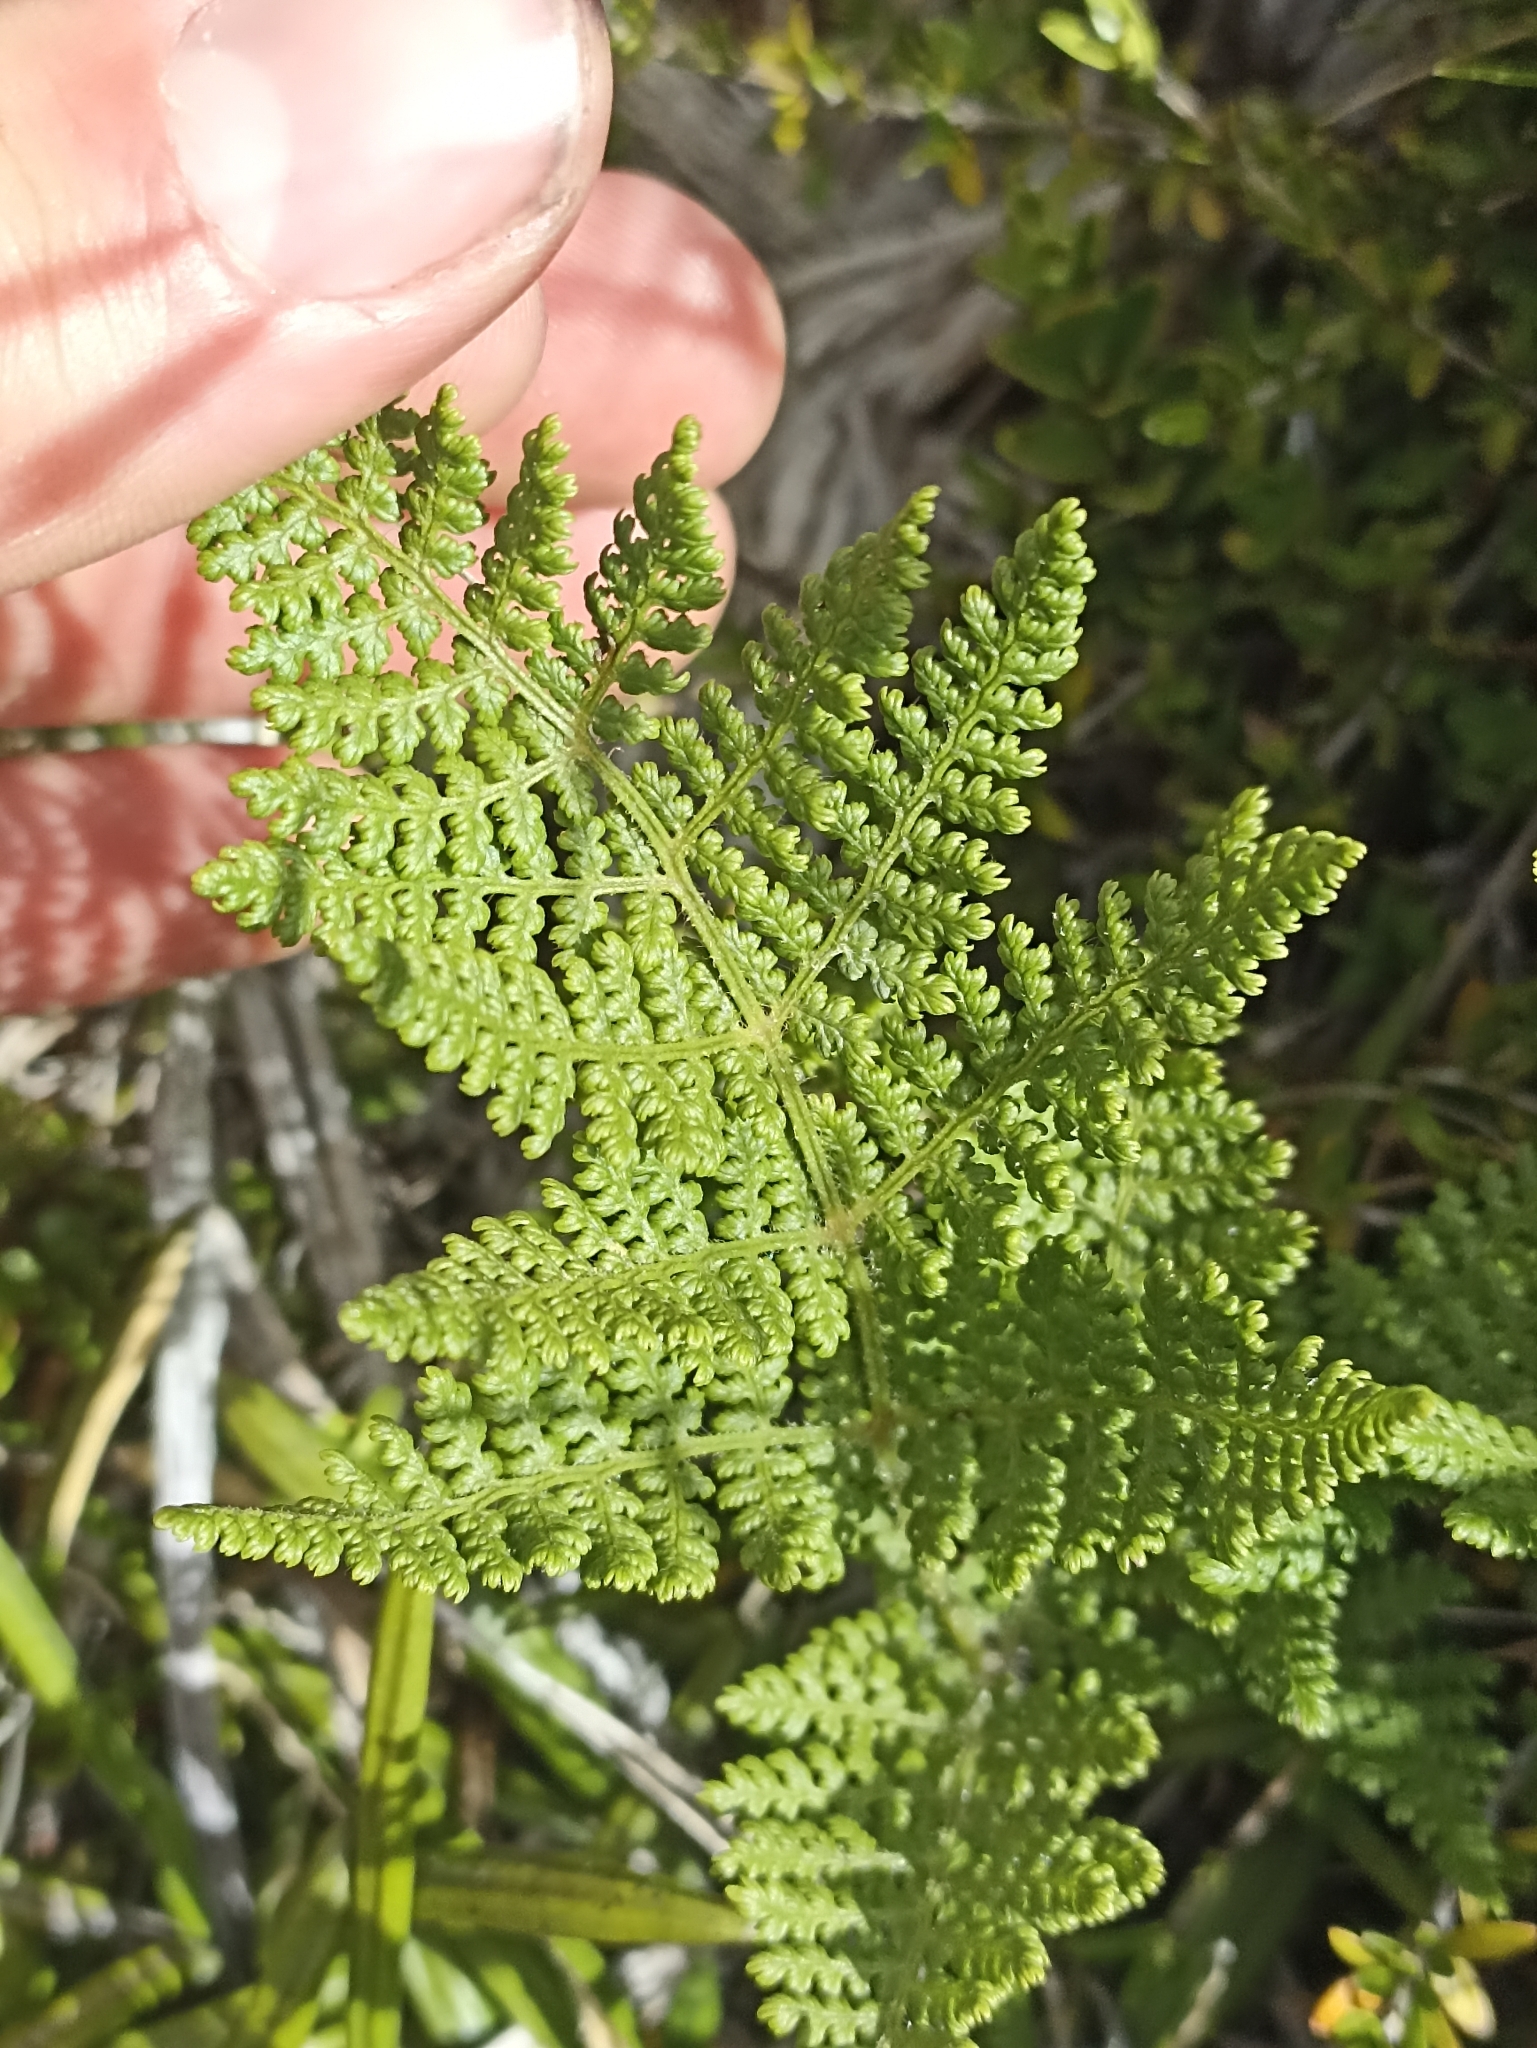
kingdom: Plantae
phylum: Tracheophyta
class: Polypodiopsida
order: Polypodiales
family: Dennstaedtiaceae
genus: Hypolepis
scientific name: Hypolepis millefolium
